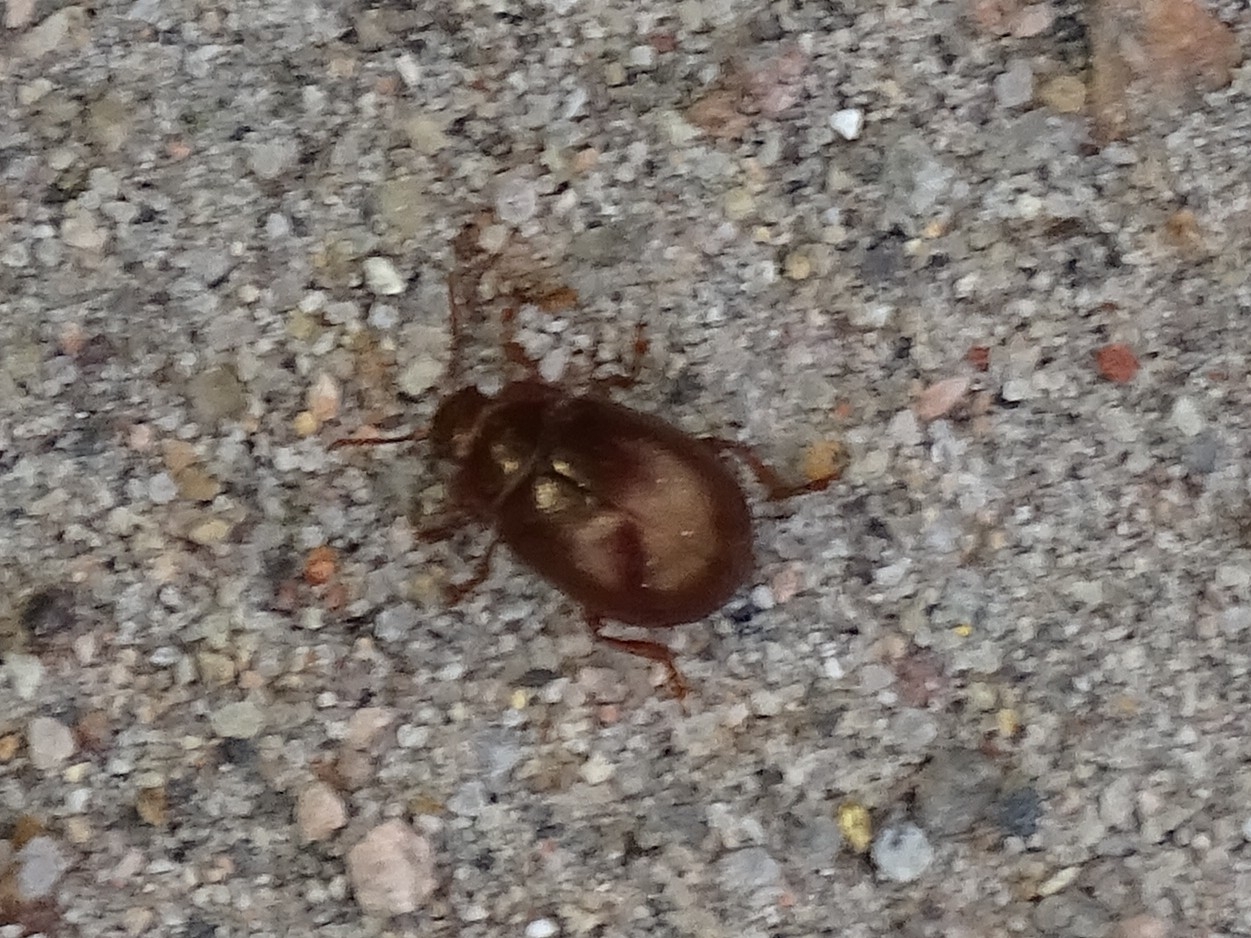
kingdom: Animalia
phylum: Arthropoda
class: Insecta
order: Coleoptera
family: Chrysomelidae
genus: Chrysolina
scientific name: Chrysolina staphylaea
